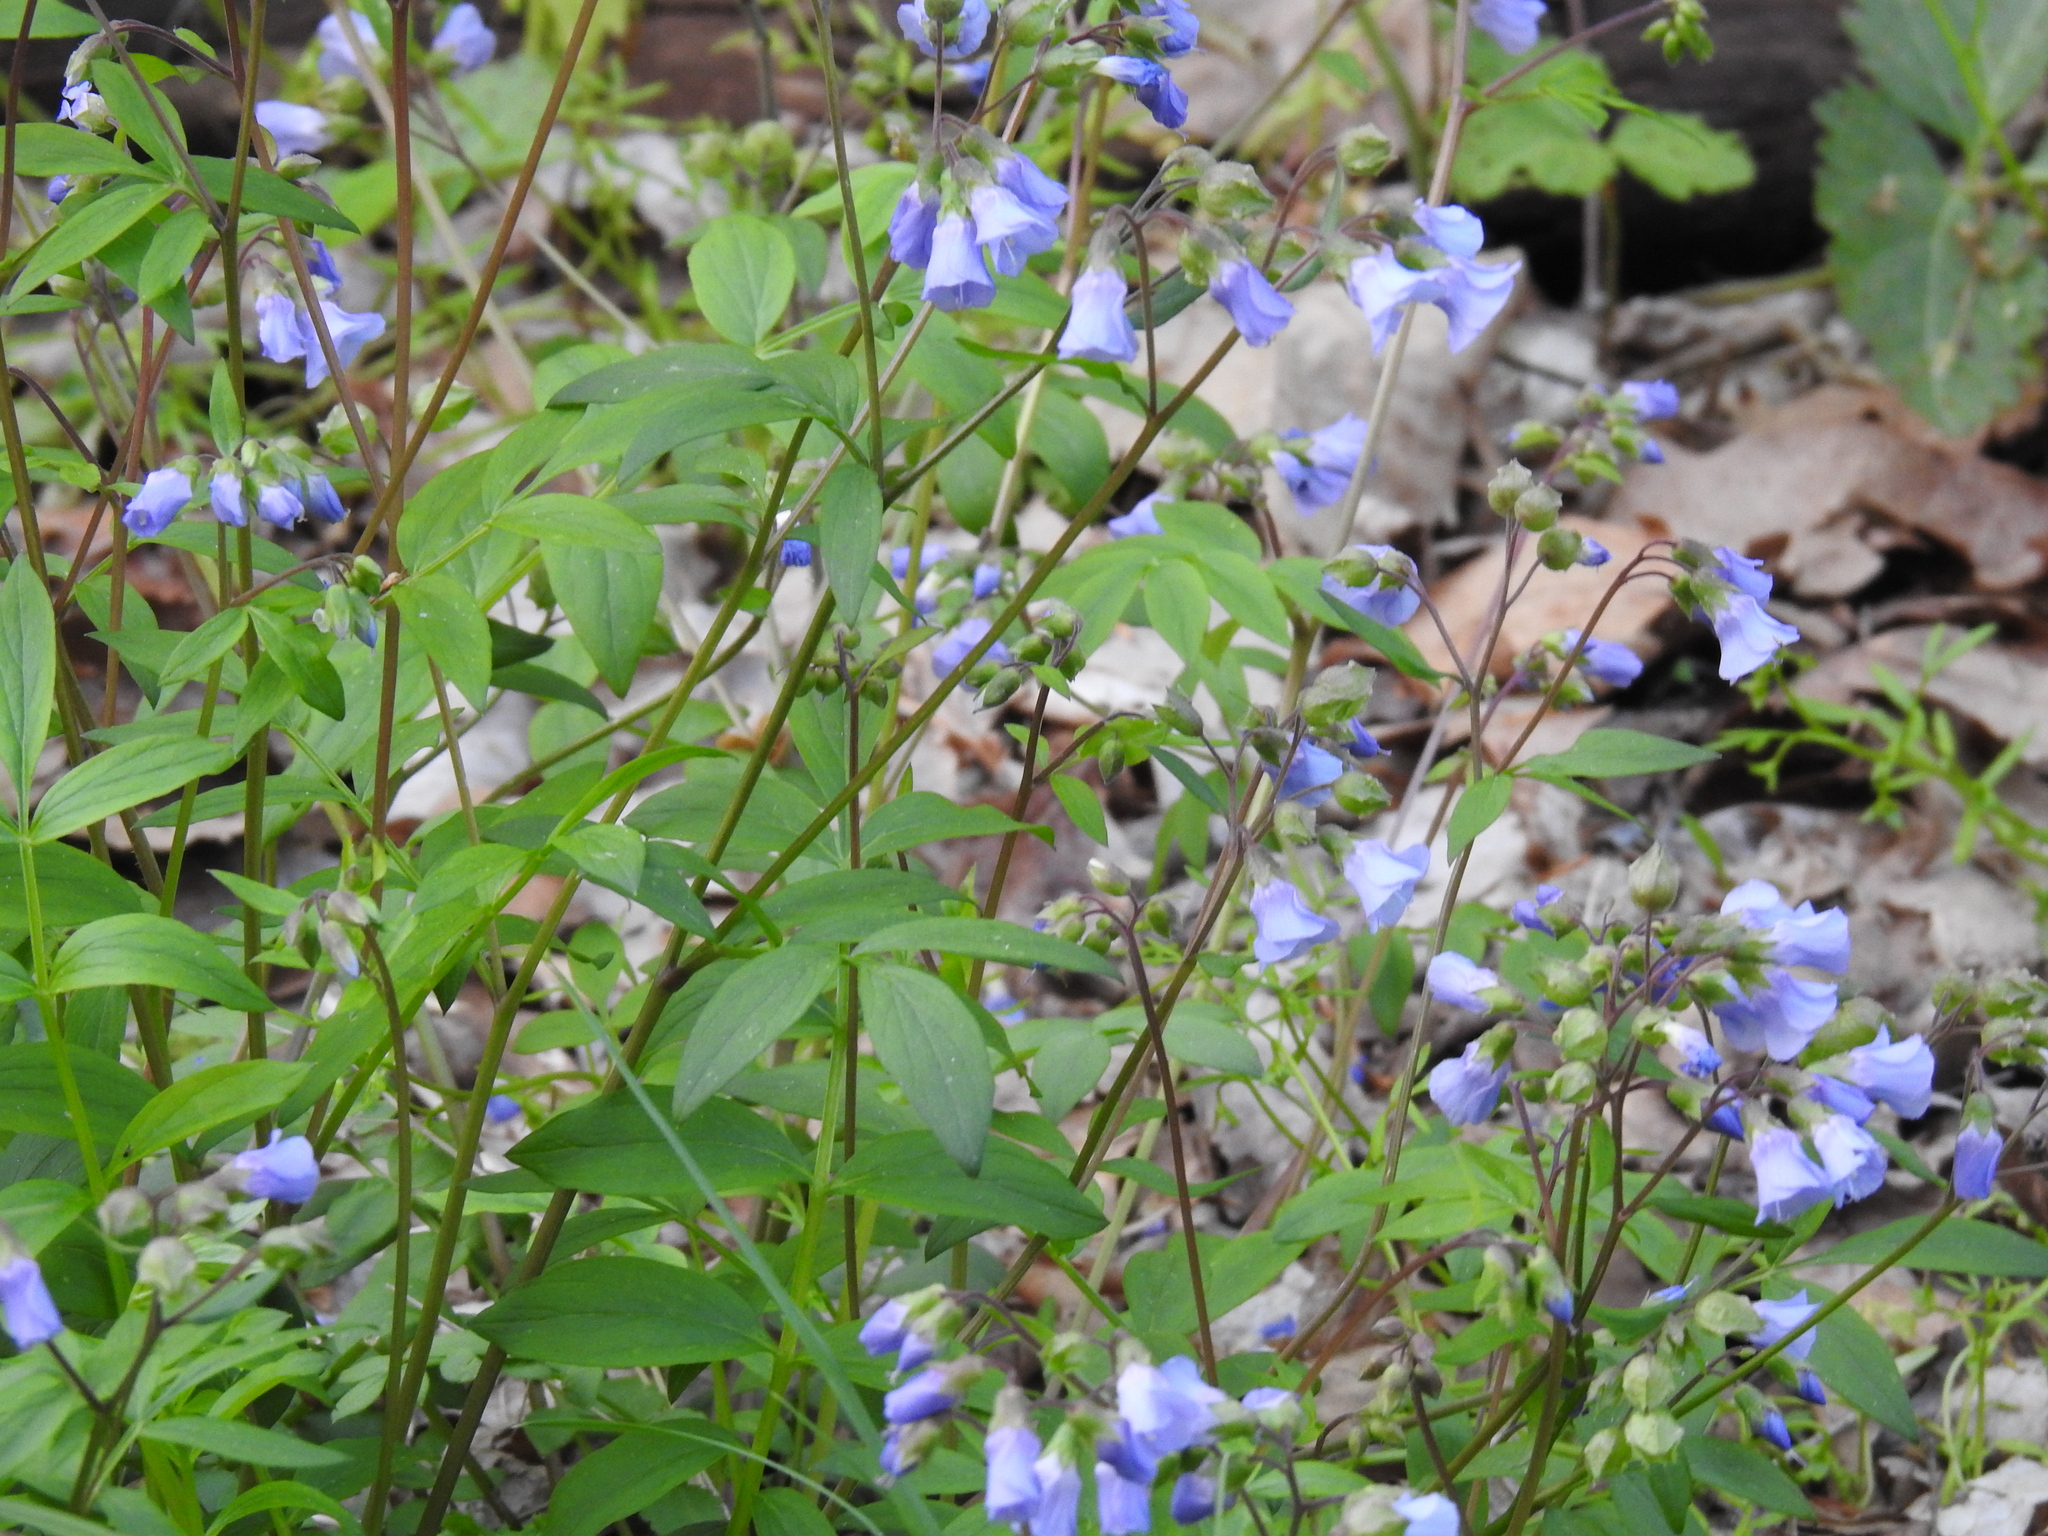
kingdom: Plantae
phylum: Tracheophyta
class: Magnoliopsida
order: Ericales
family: Polemoniaceae
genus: Polemonium
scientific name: Polemonium reptans
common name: Creeping jacob's-ladder
